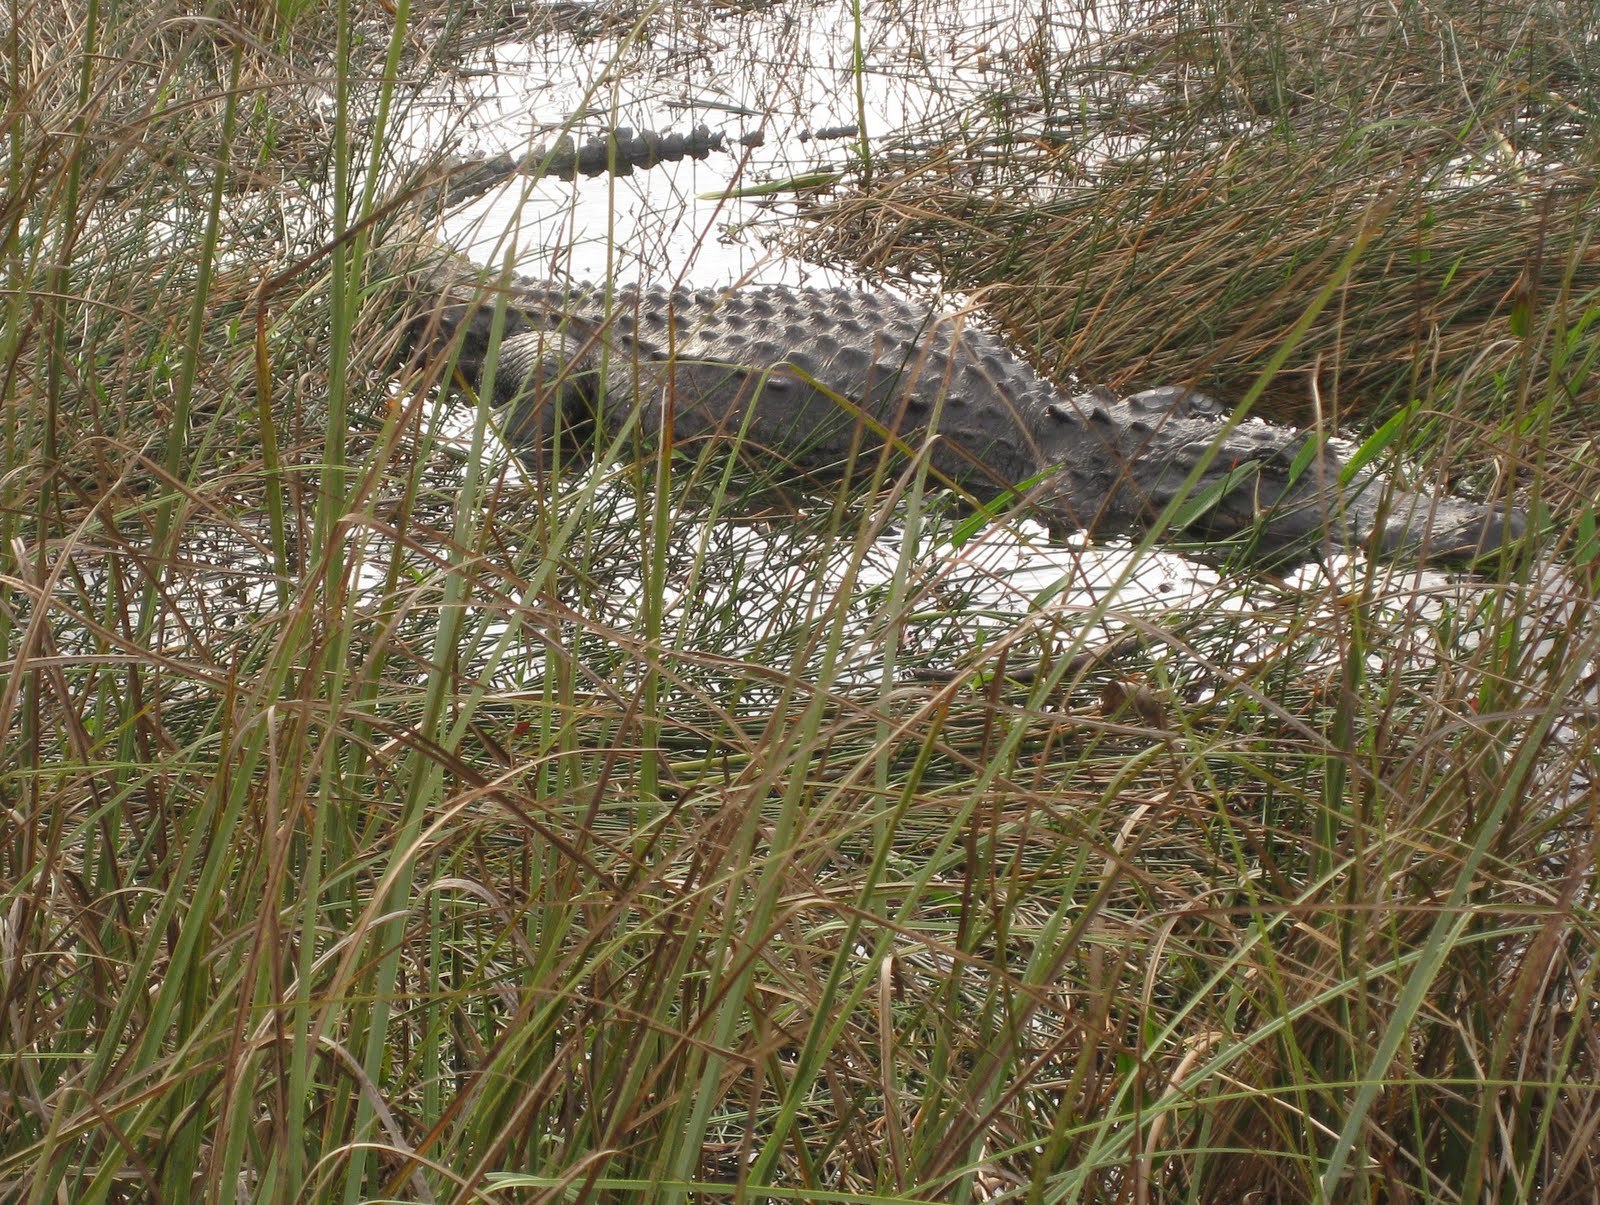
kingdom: Animalia
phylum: Chordata
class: Crocodylia
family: Alligatoridae
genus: Alligator
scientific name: Alligator mississippiensis
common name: American alligator
